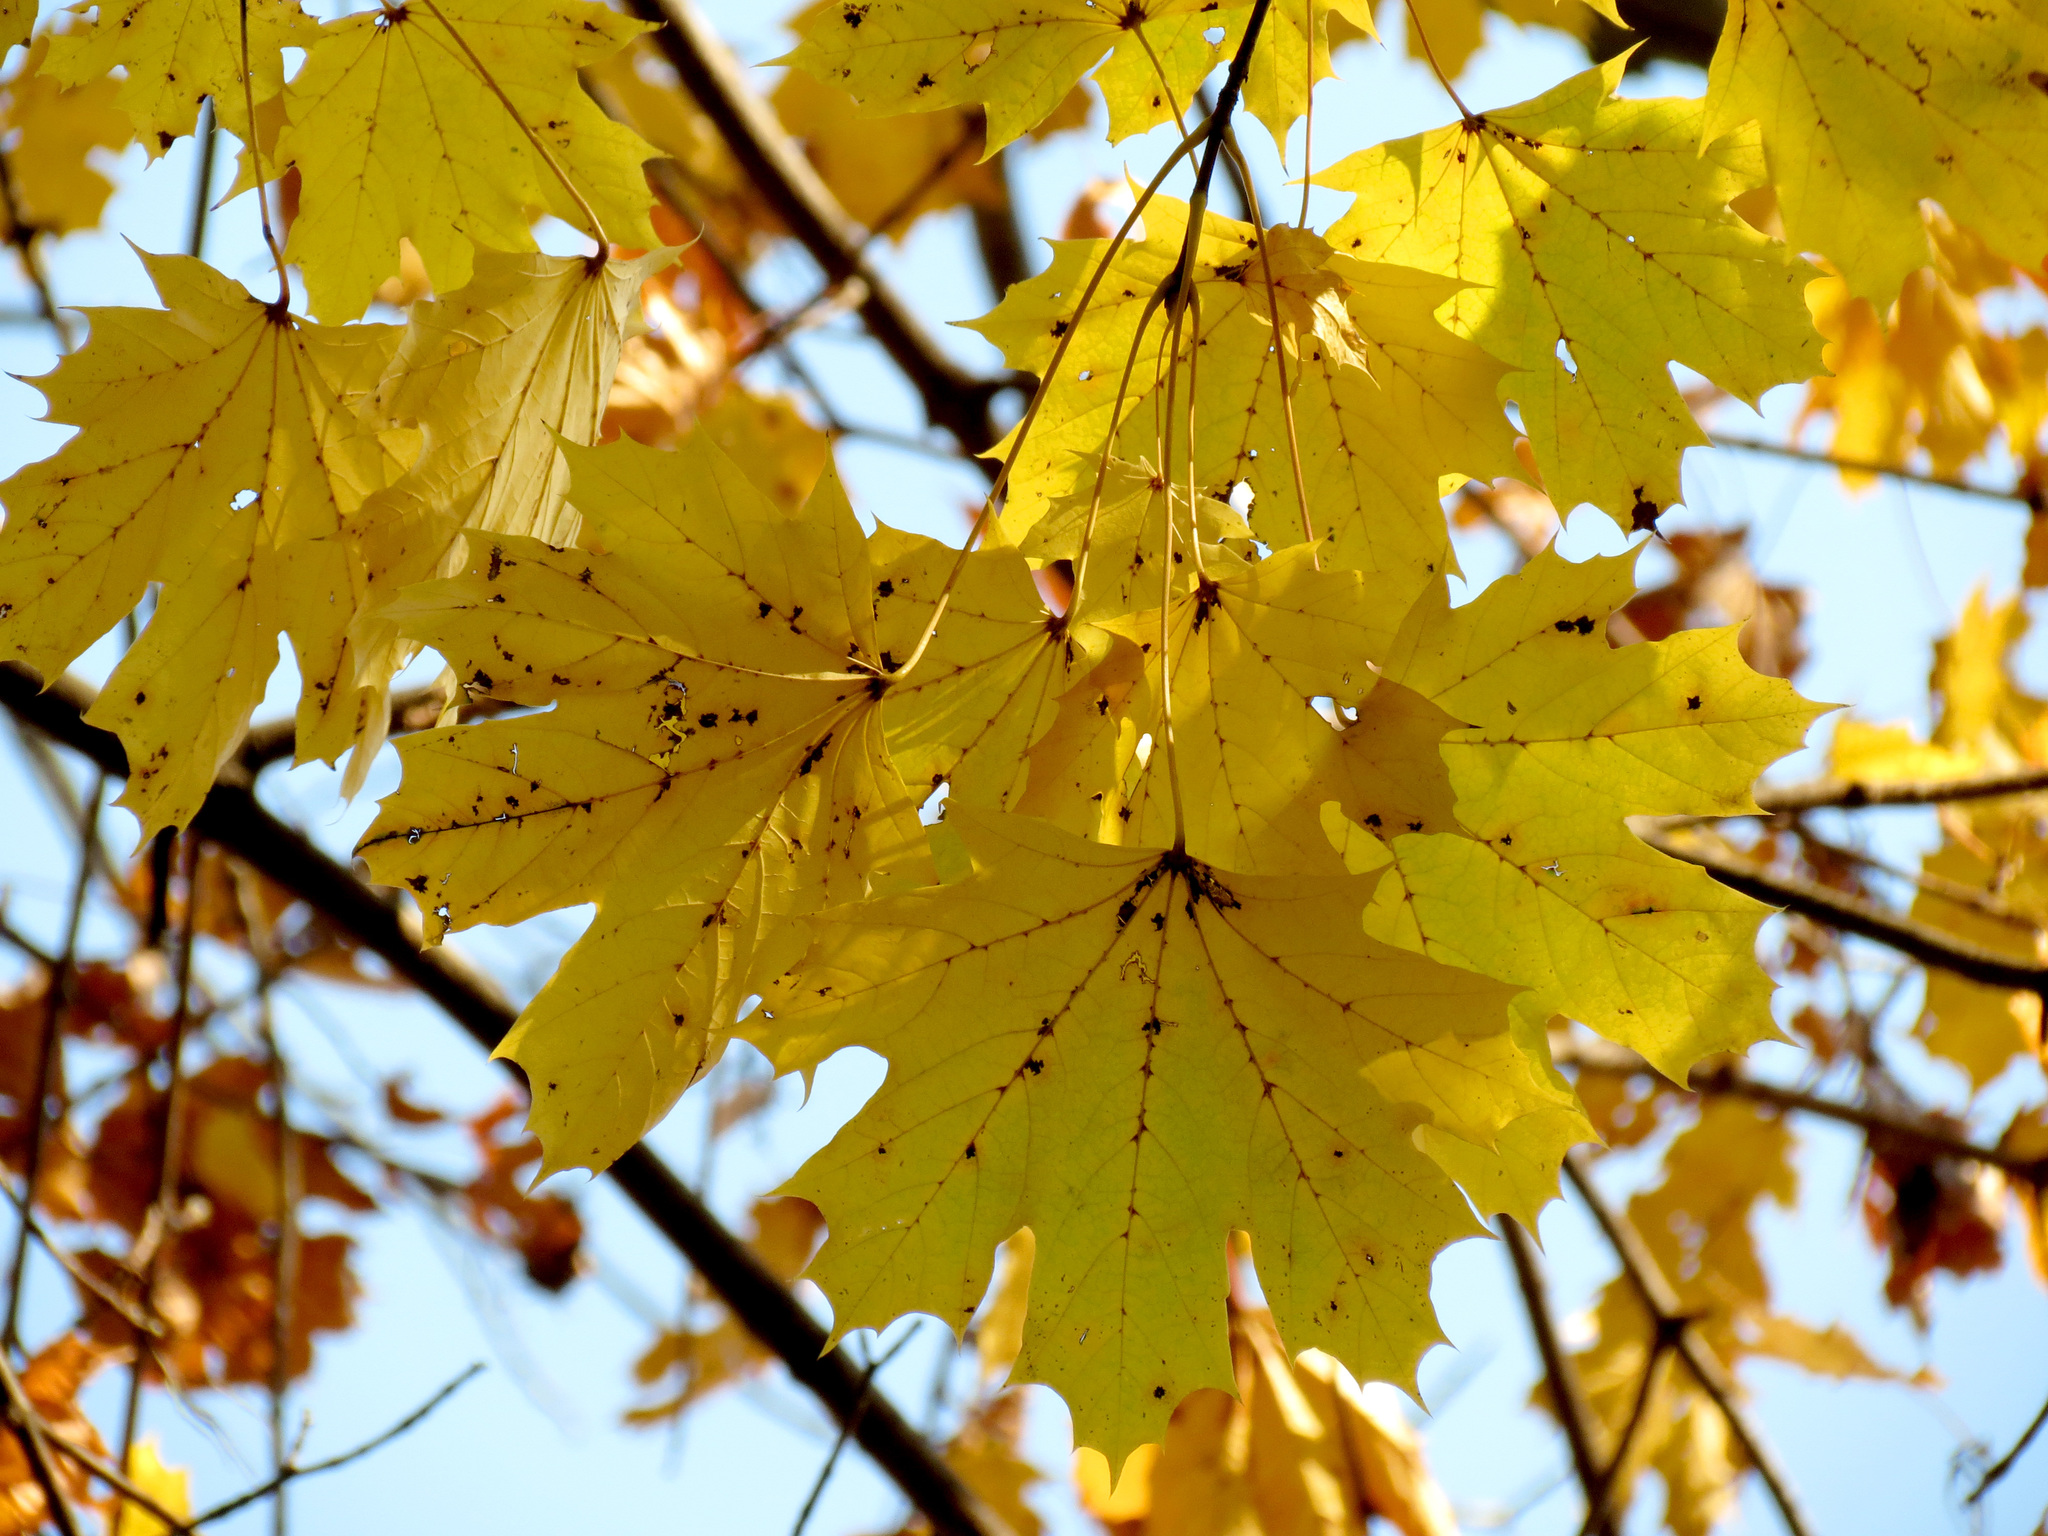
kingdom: Plantae
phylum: Tracheophyta
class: Magnoliopsida
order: Sapindales
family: Sapindaceae
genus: Acer
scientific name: Acer platanoides
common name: Norway maple
